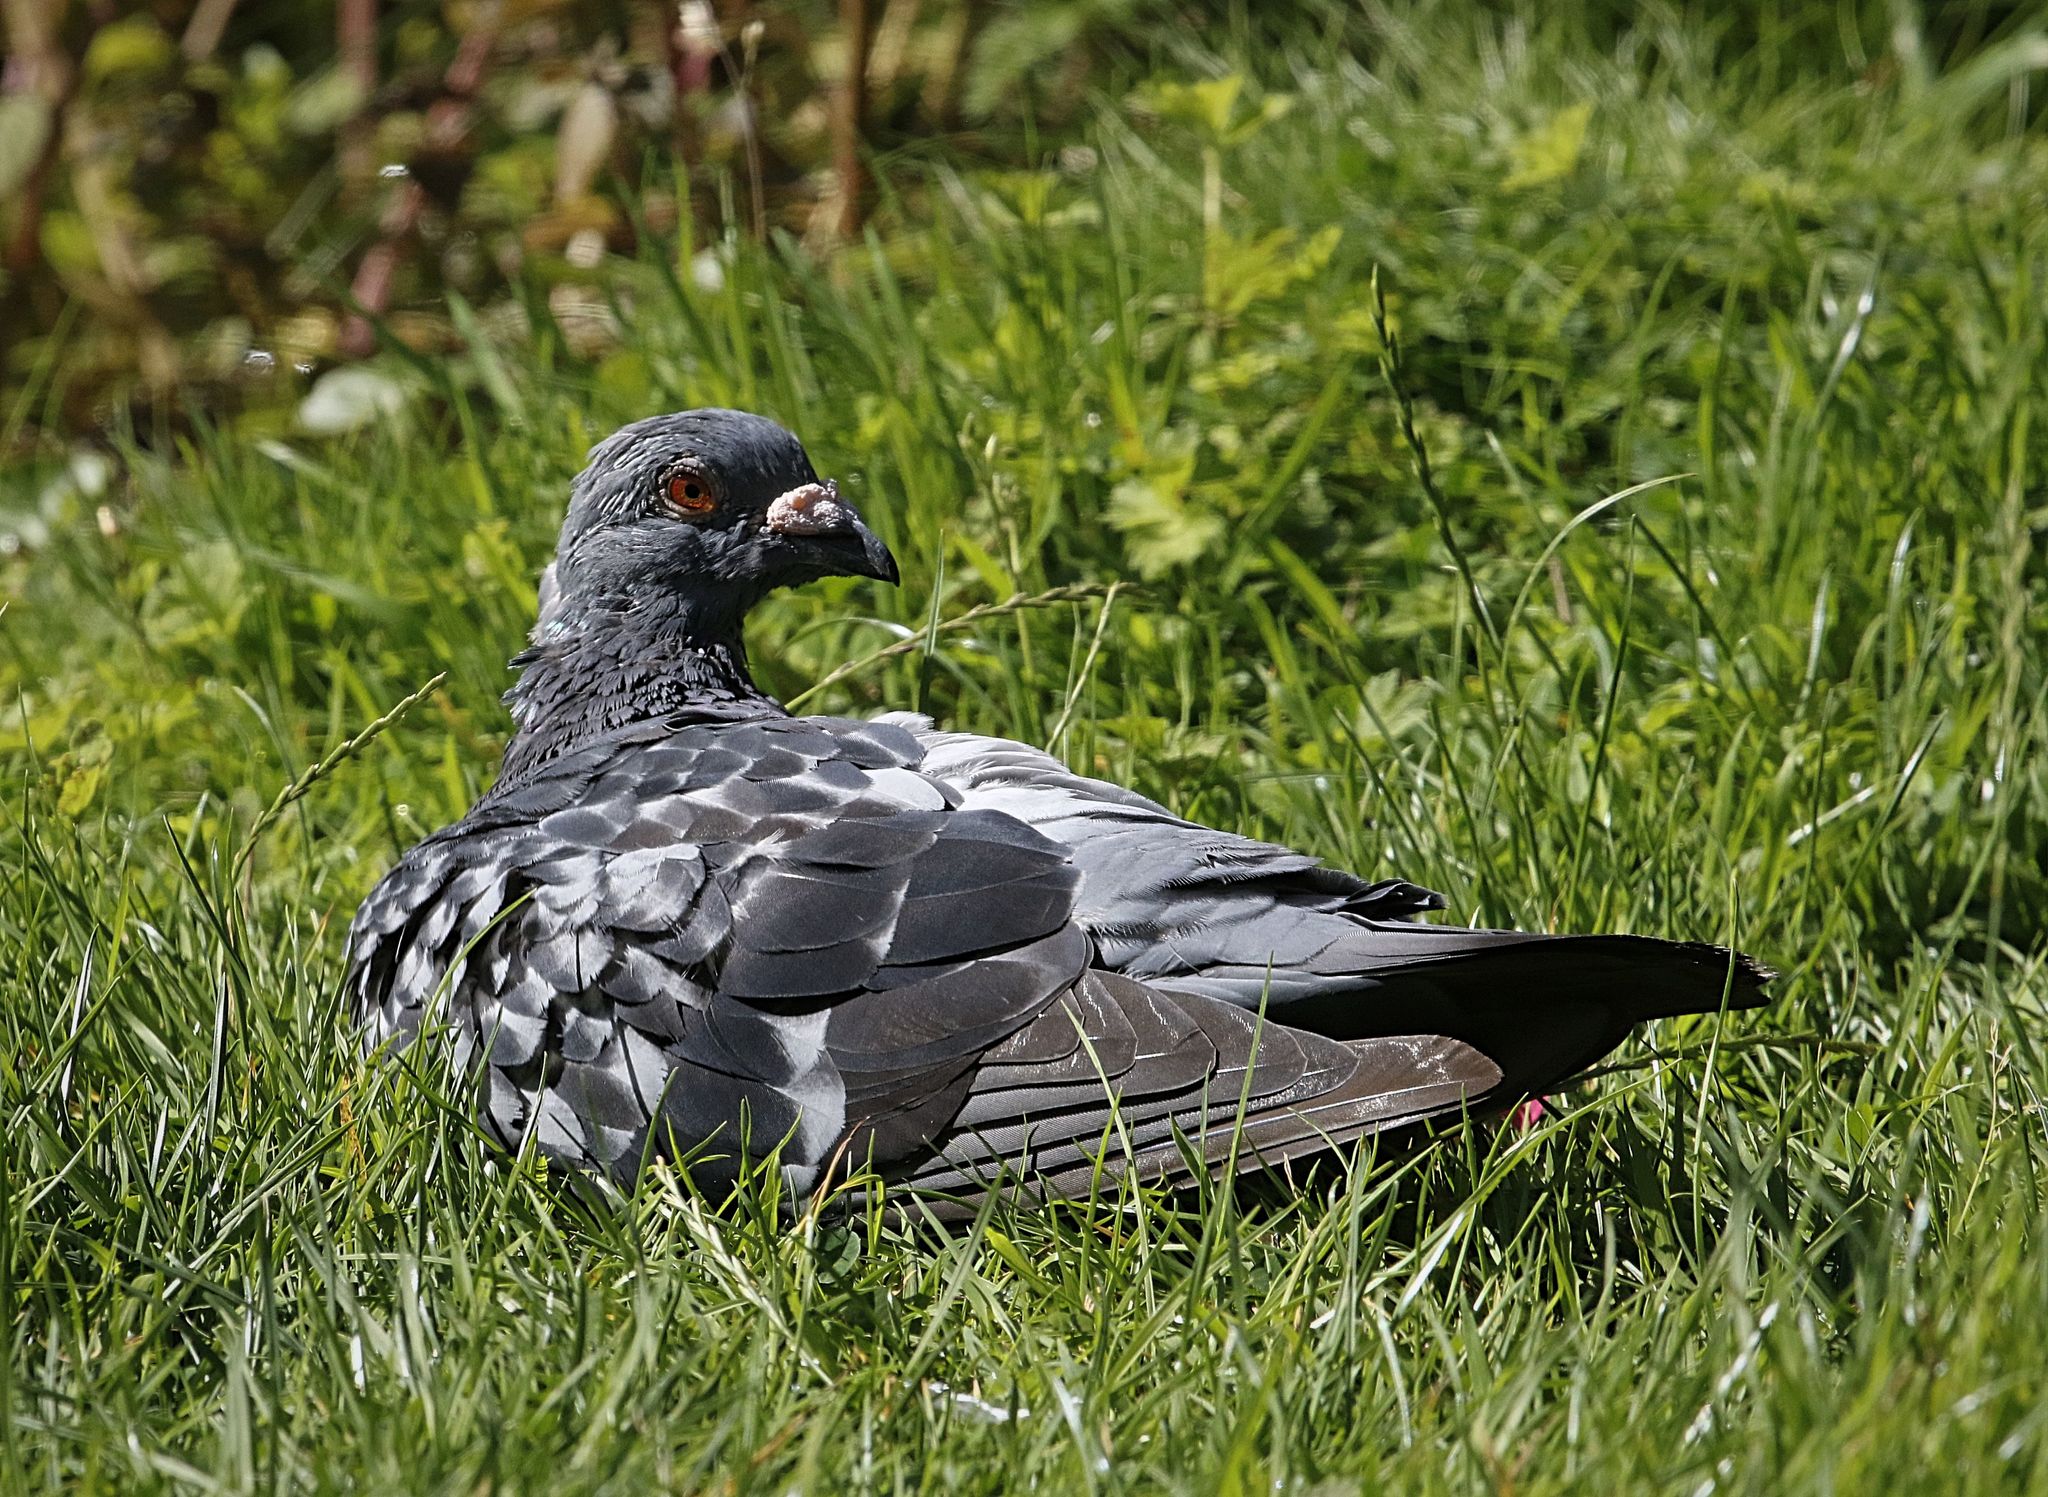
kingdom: Animalia
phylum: Chordata
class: Aves
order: Columbiformes
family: Columbidae
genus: Columba
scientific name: Columba livia
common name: Rock pigeon
